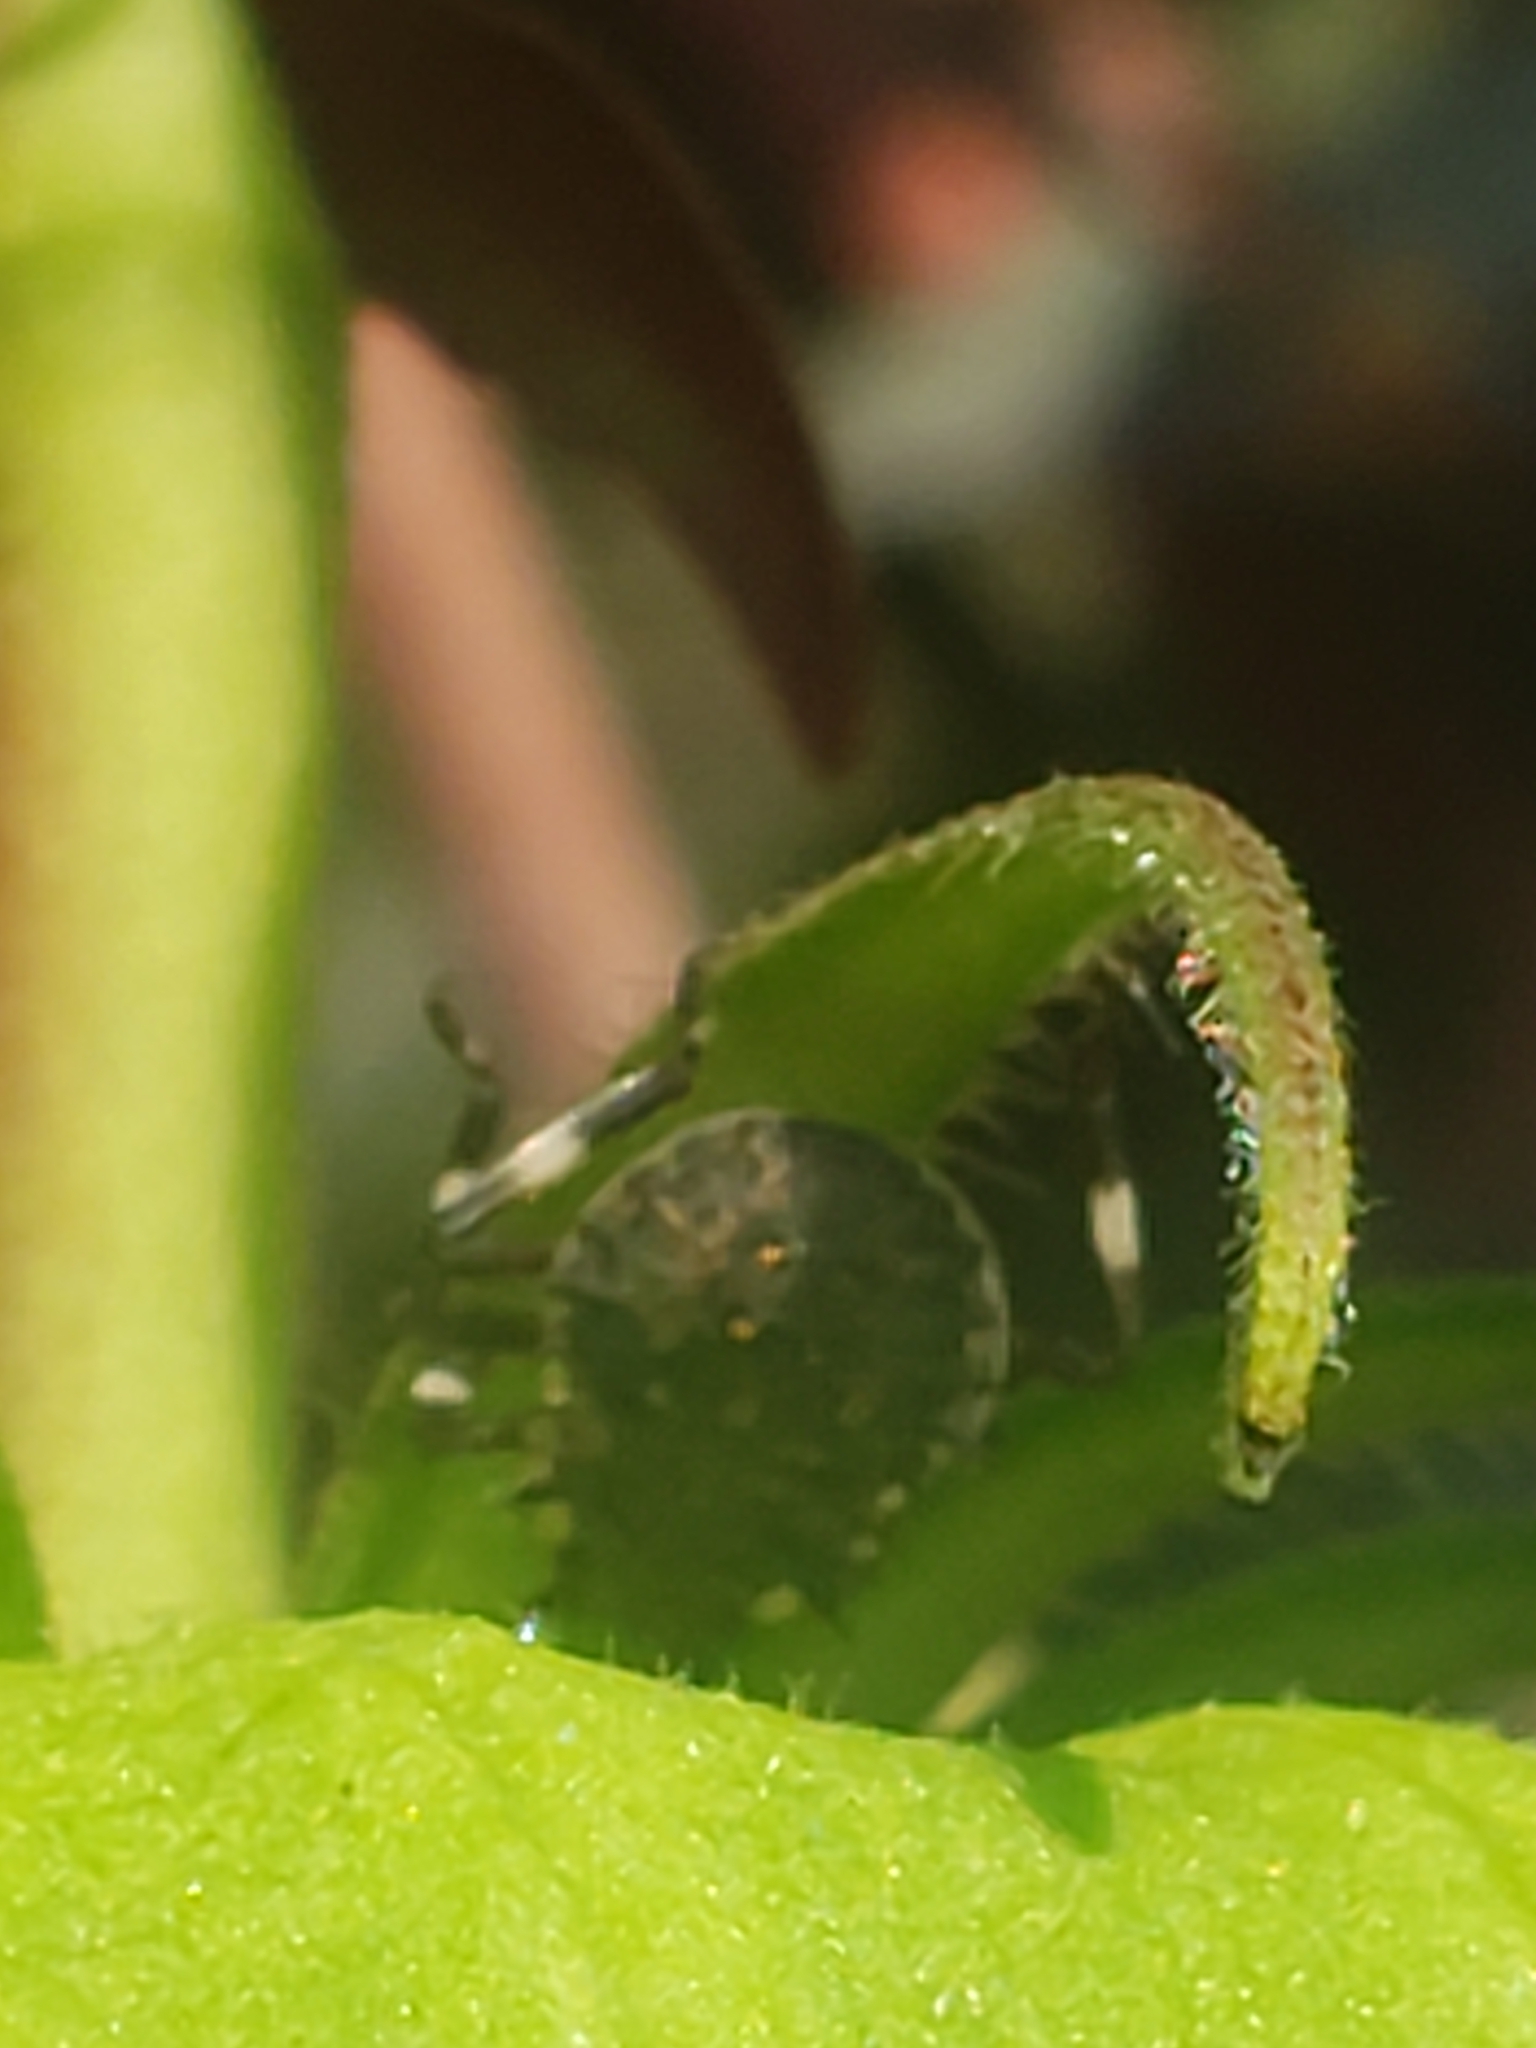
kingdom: Animalia
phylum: Arthropoda
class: Insecta
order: Hemiptera
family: Pentatomidae
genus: Halyomorpha
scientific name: Halyomorpha halys
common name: Brown marmorated stink bug
